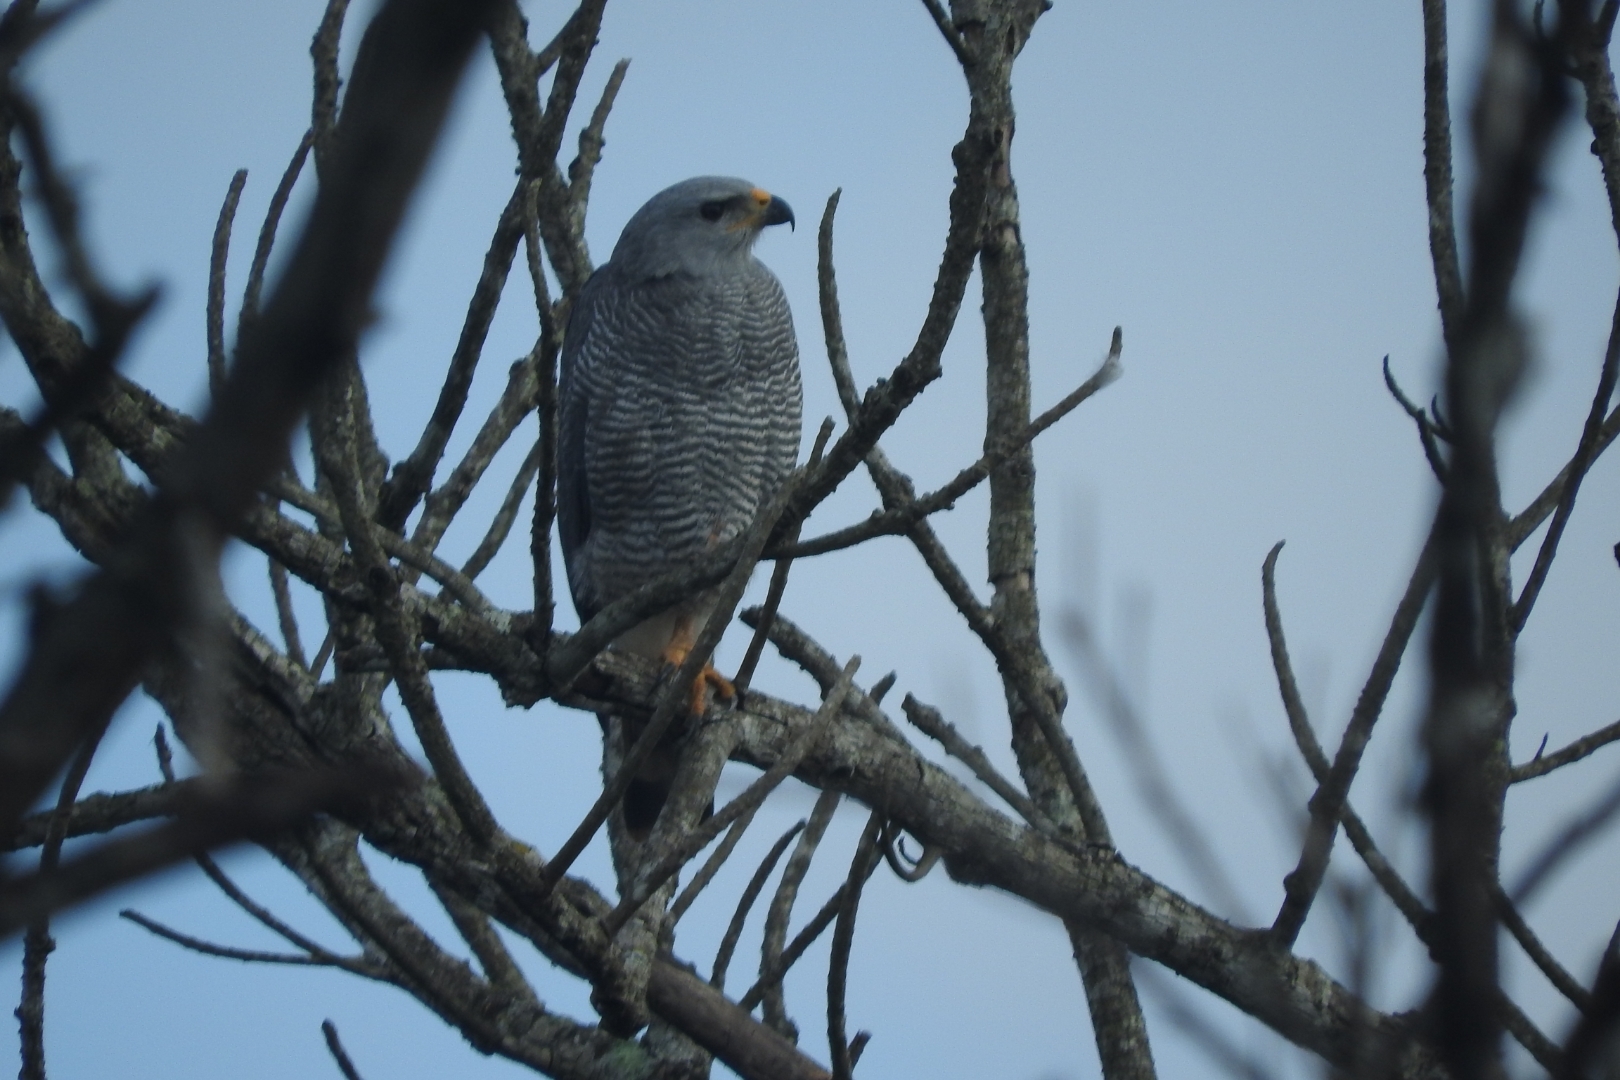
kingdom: Animalia
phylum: Chordata
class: Aves
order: Accipitriformes
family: Accipitridae
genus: Buteo
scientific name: Buteo nitidus
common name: Grey-lined hawk
